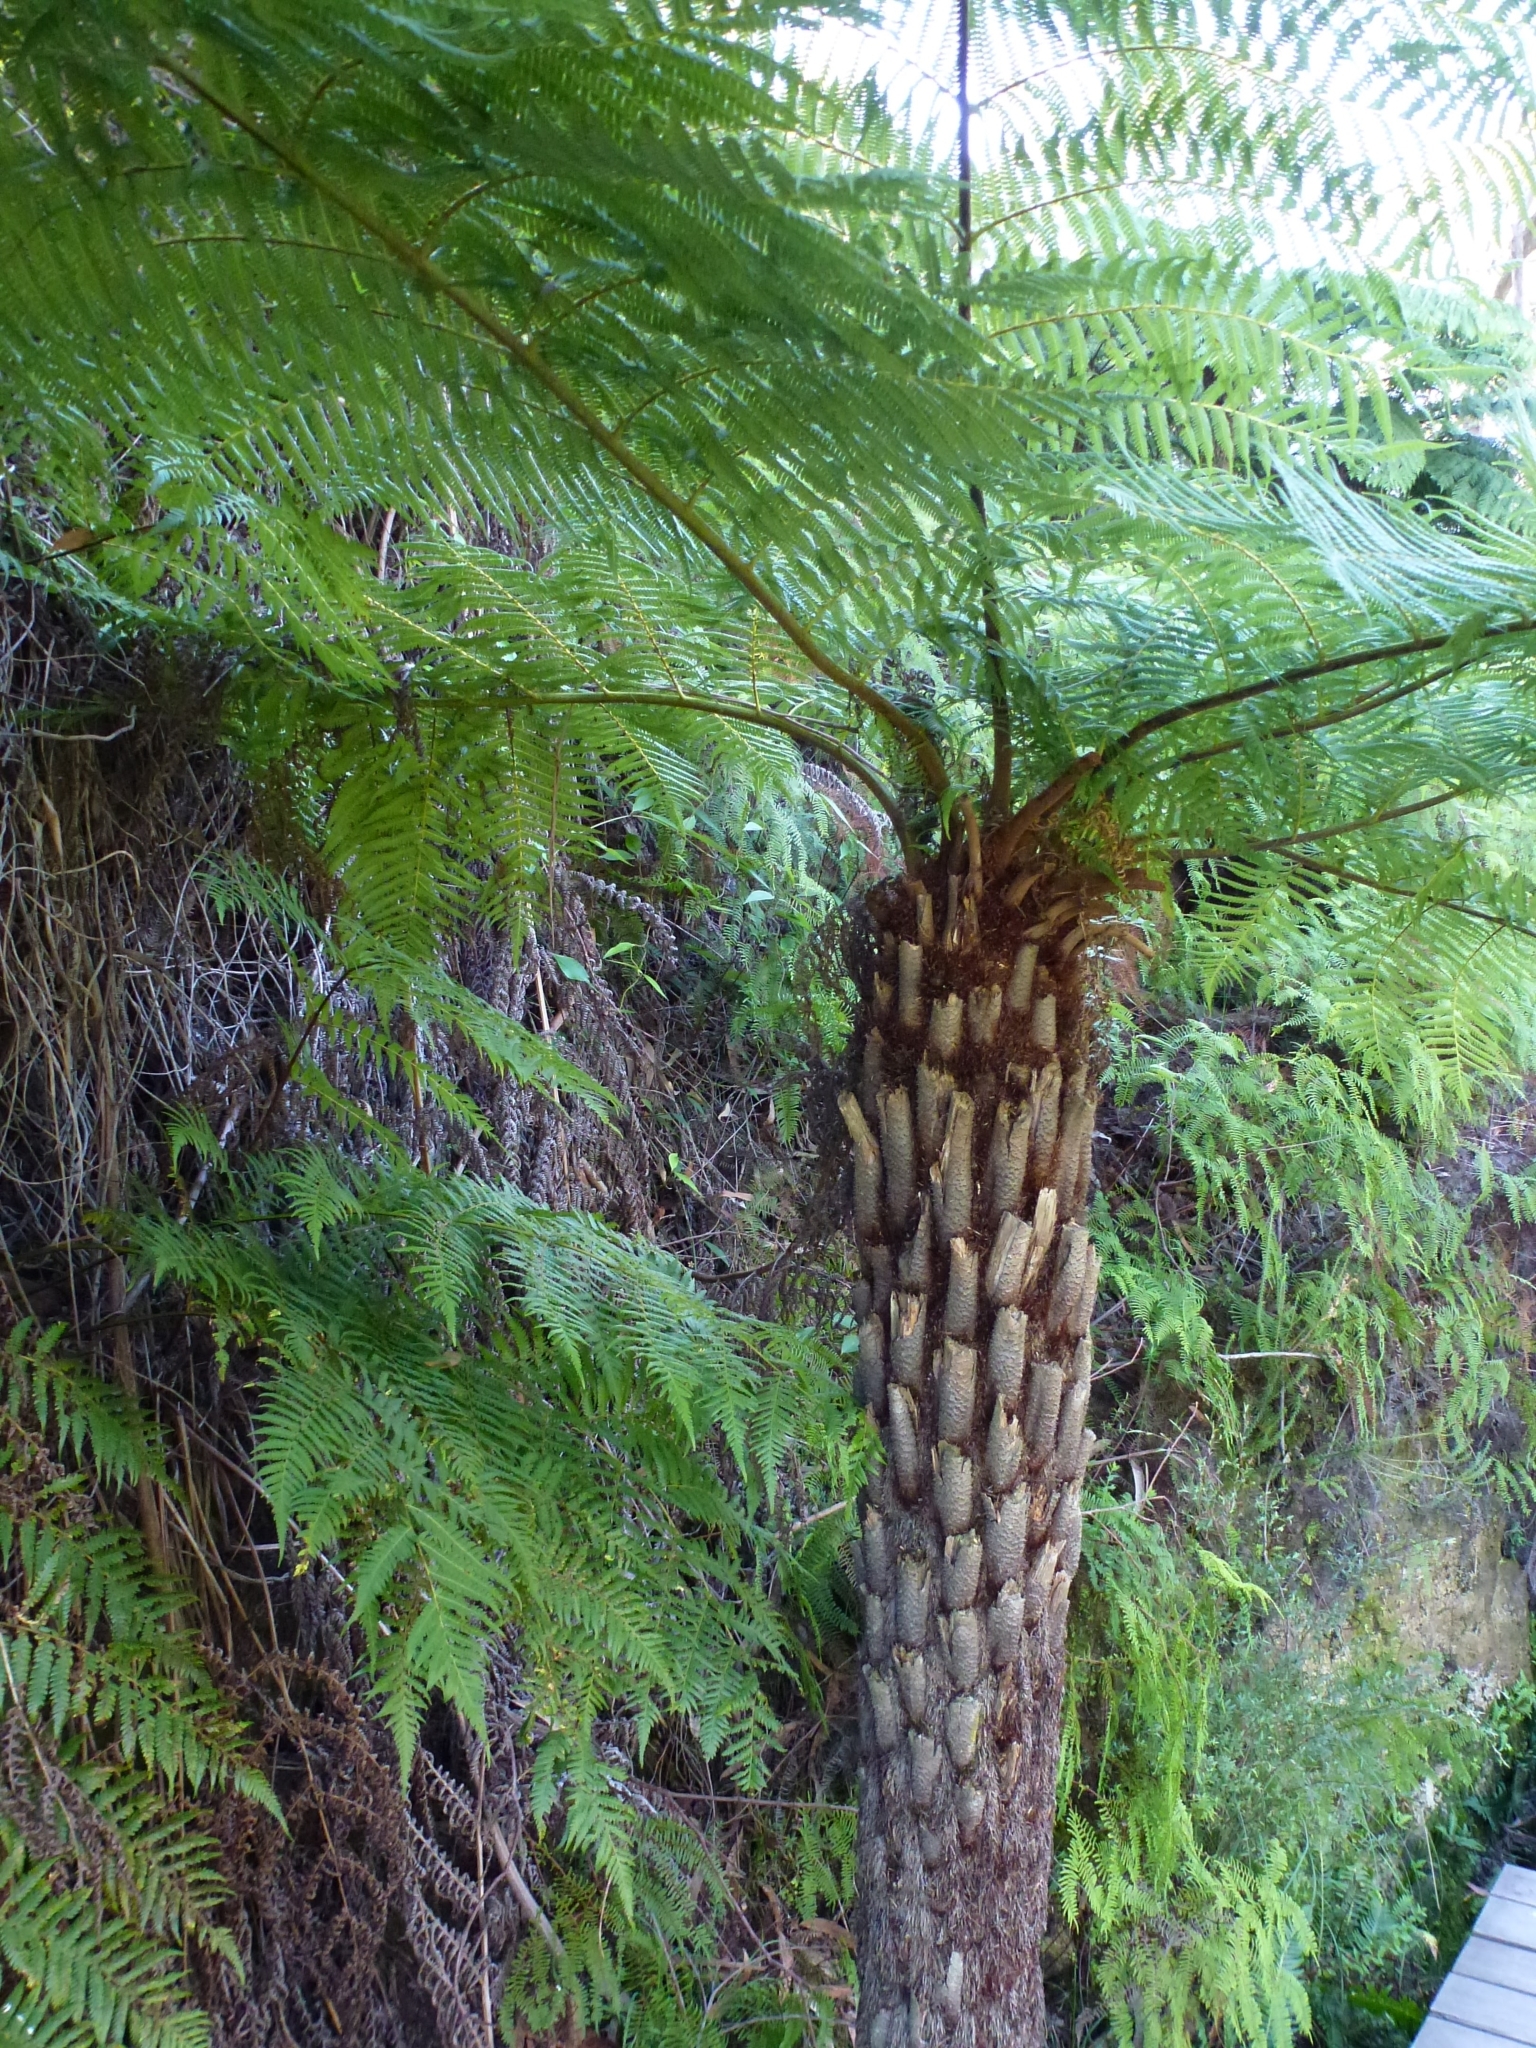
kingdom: Plantae
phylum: Tracheophyta
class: Polypodiopsida
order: Cyatheales
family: Cyatheaceae
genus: Alsophila
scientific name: Alsophila australis
